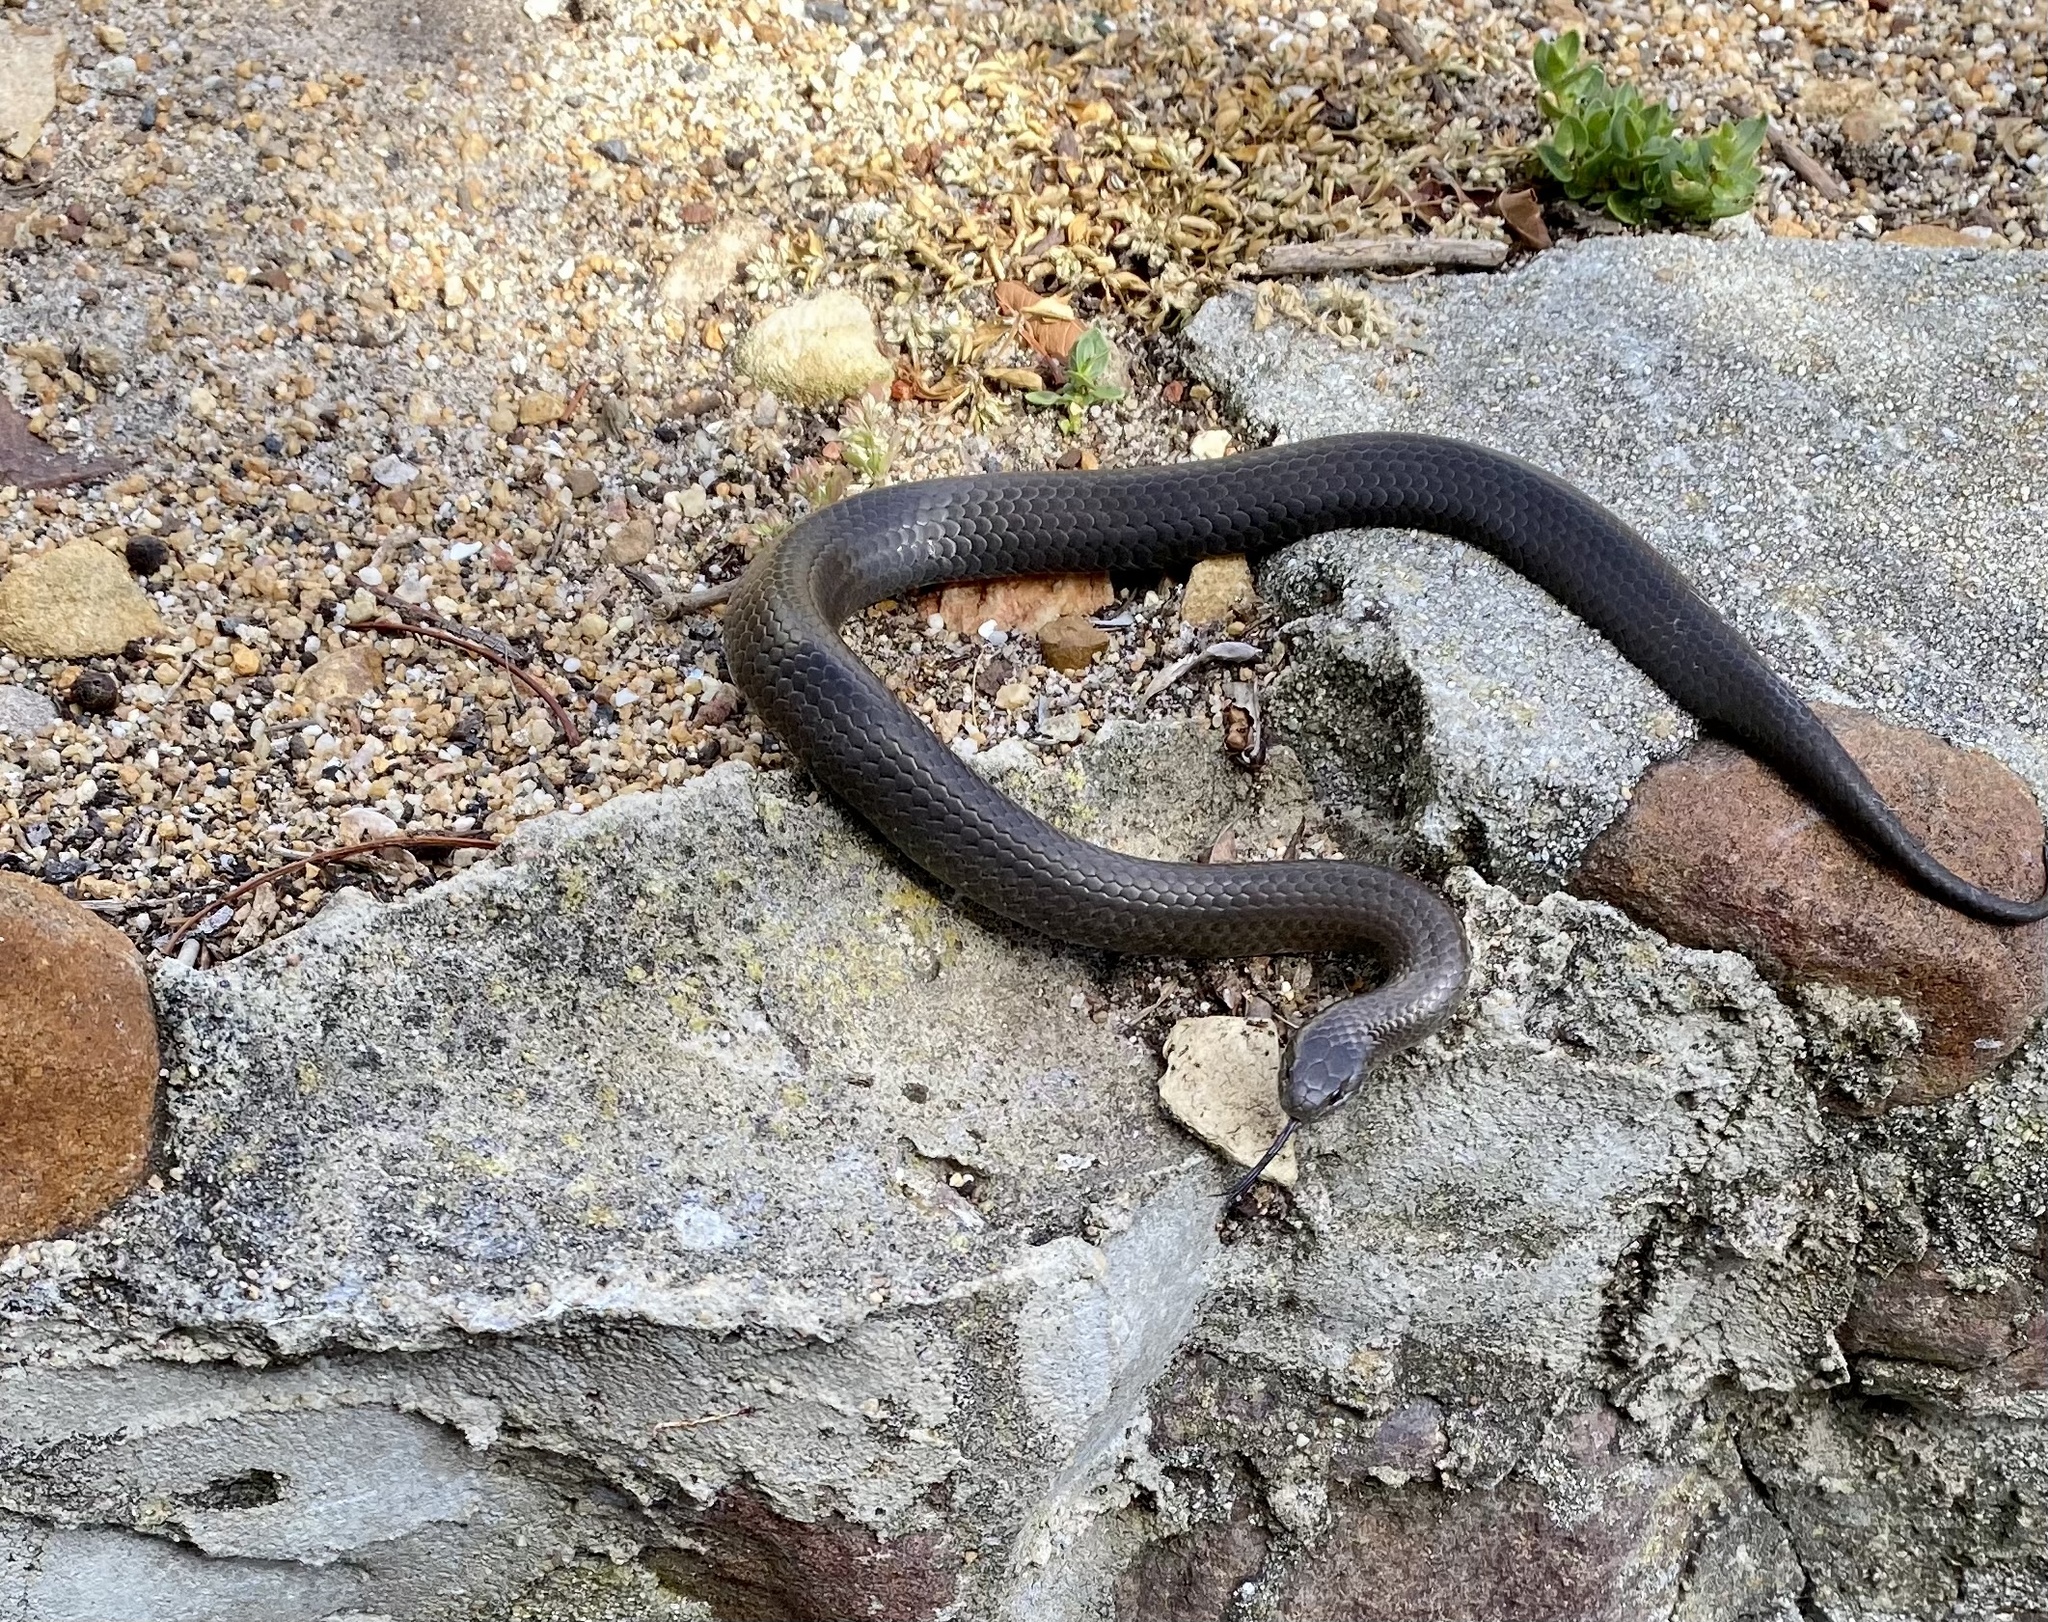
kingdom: Animalia
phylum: Chordata
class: Squamata
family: Pseudoxyrhophiidae
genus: Duberria
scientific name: Duberria lutrix
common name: Common slug eater
